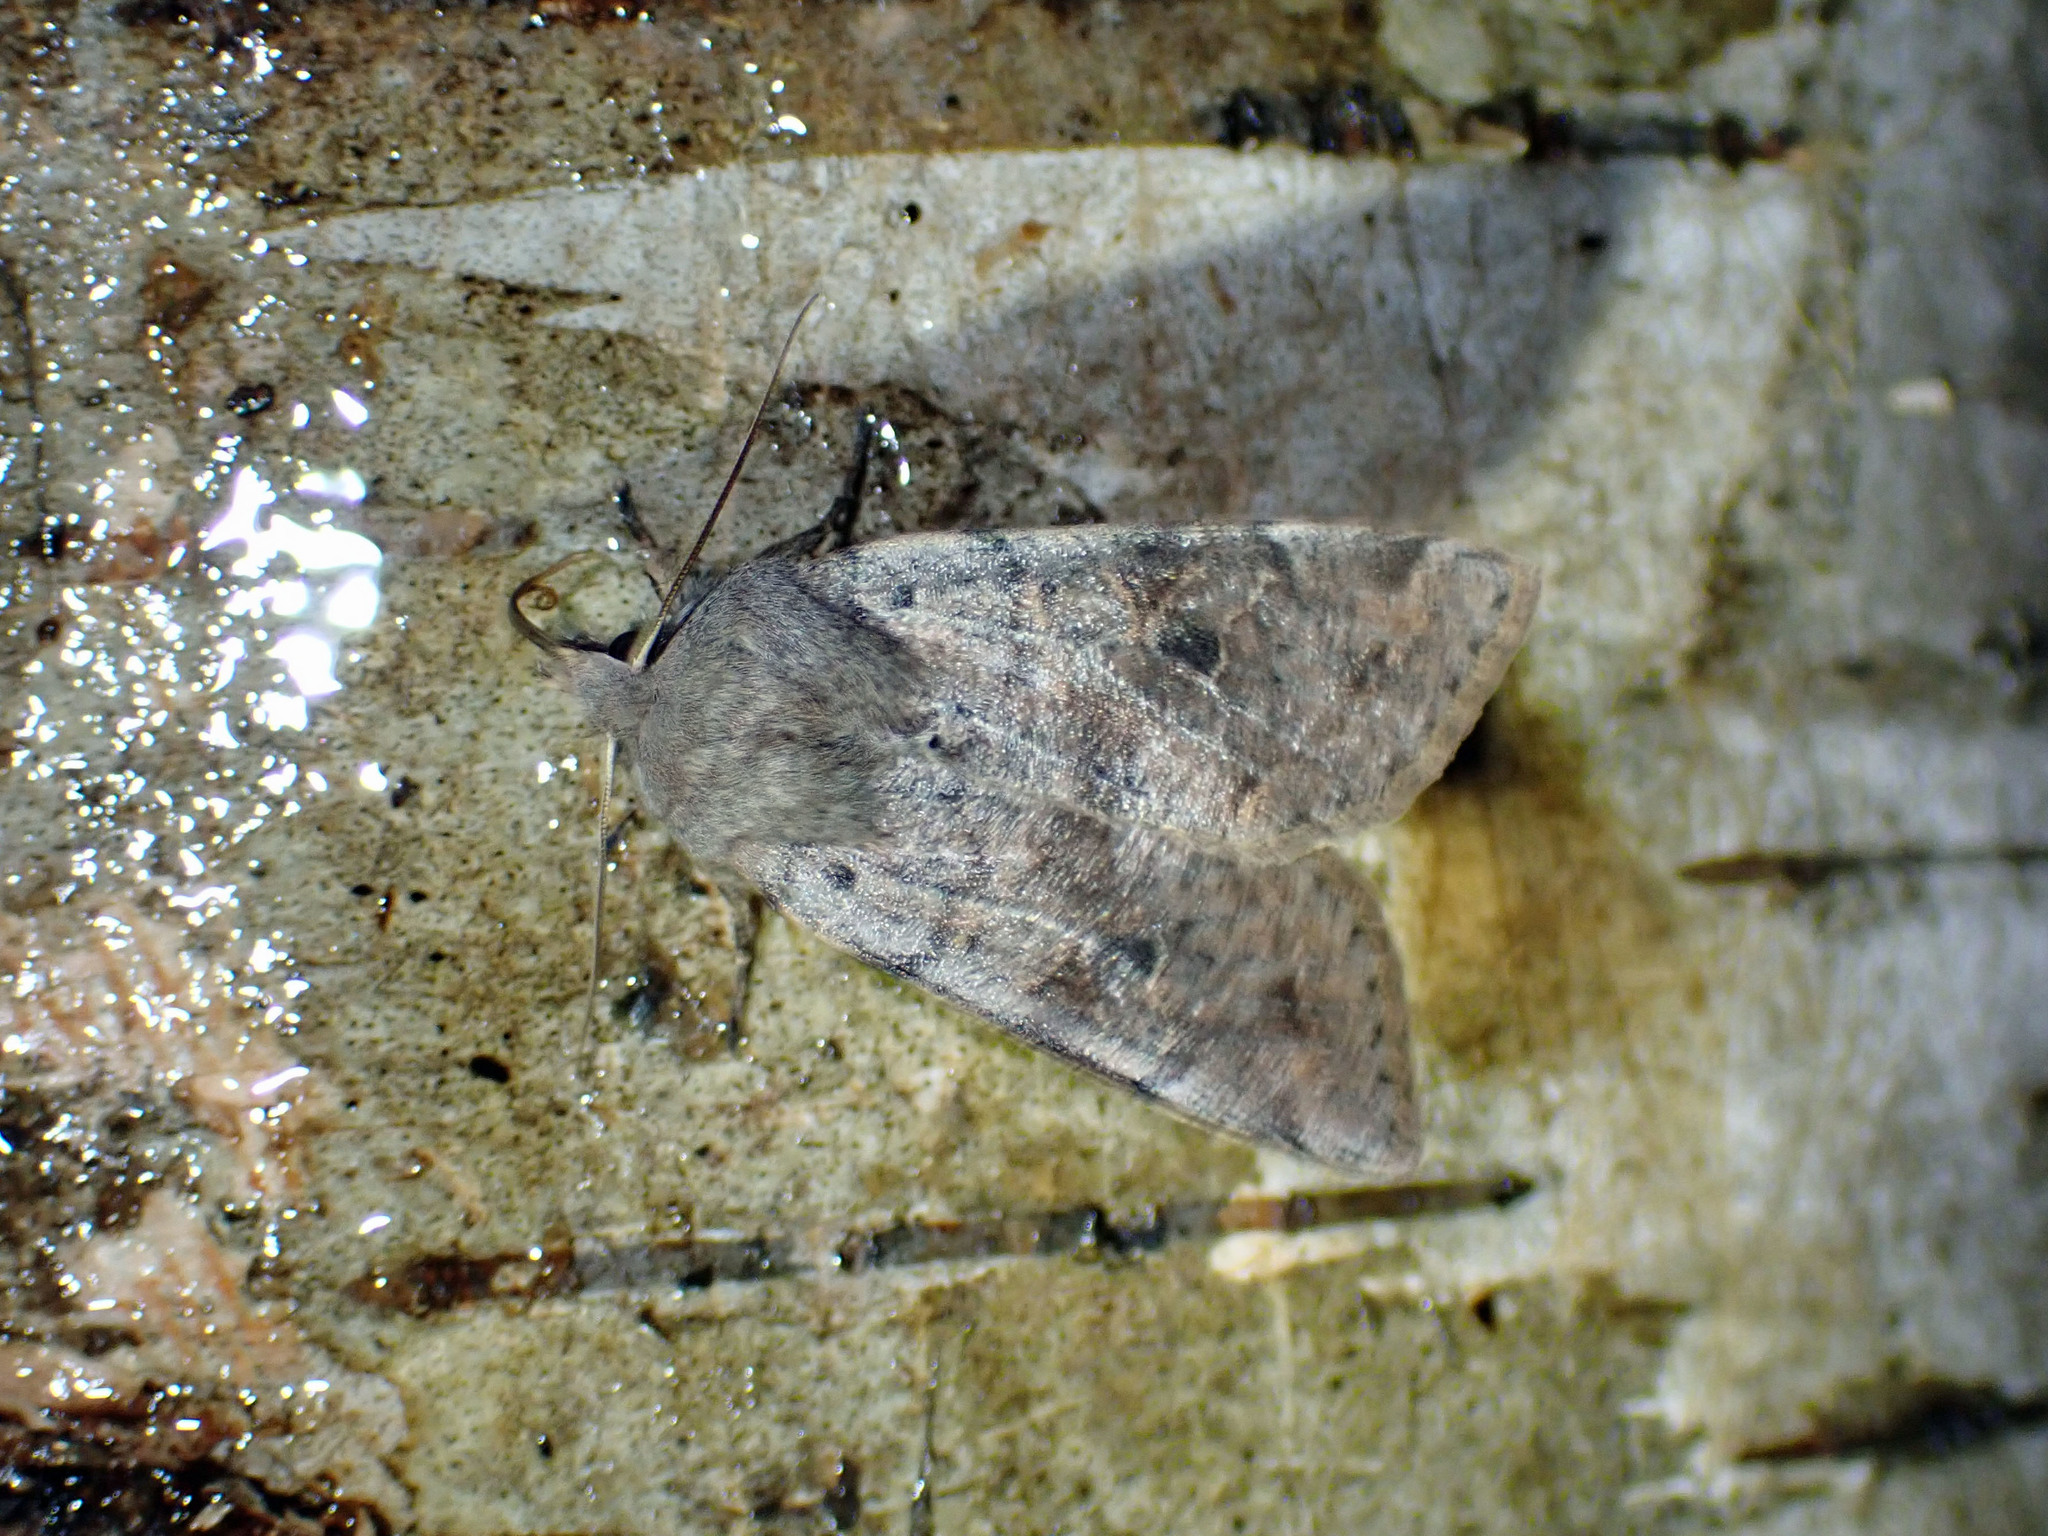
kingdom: Animalia
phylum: Arthropoda
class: Insecta
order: Lepidoptera
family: Noctuidae
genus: Orthosia
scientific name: Orthosia hibisci
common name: Green fruitworm
